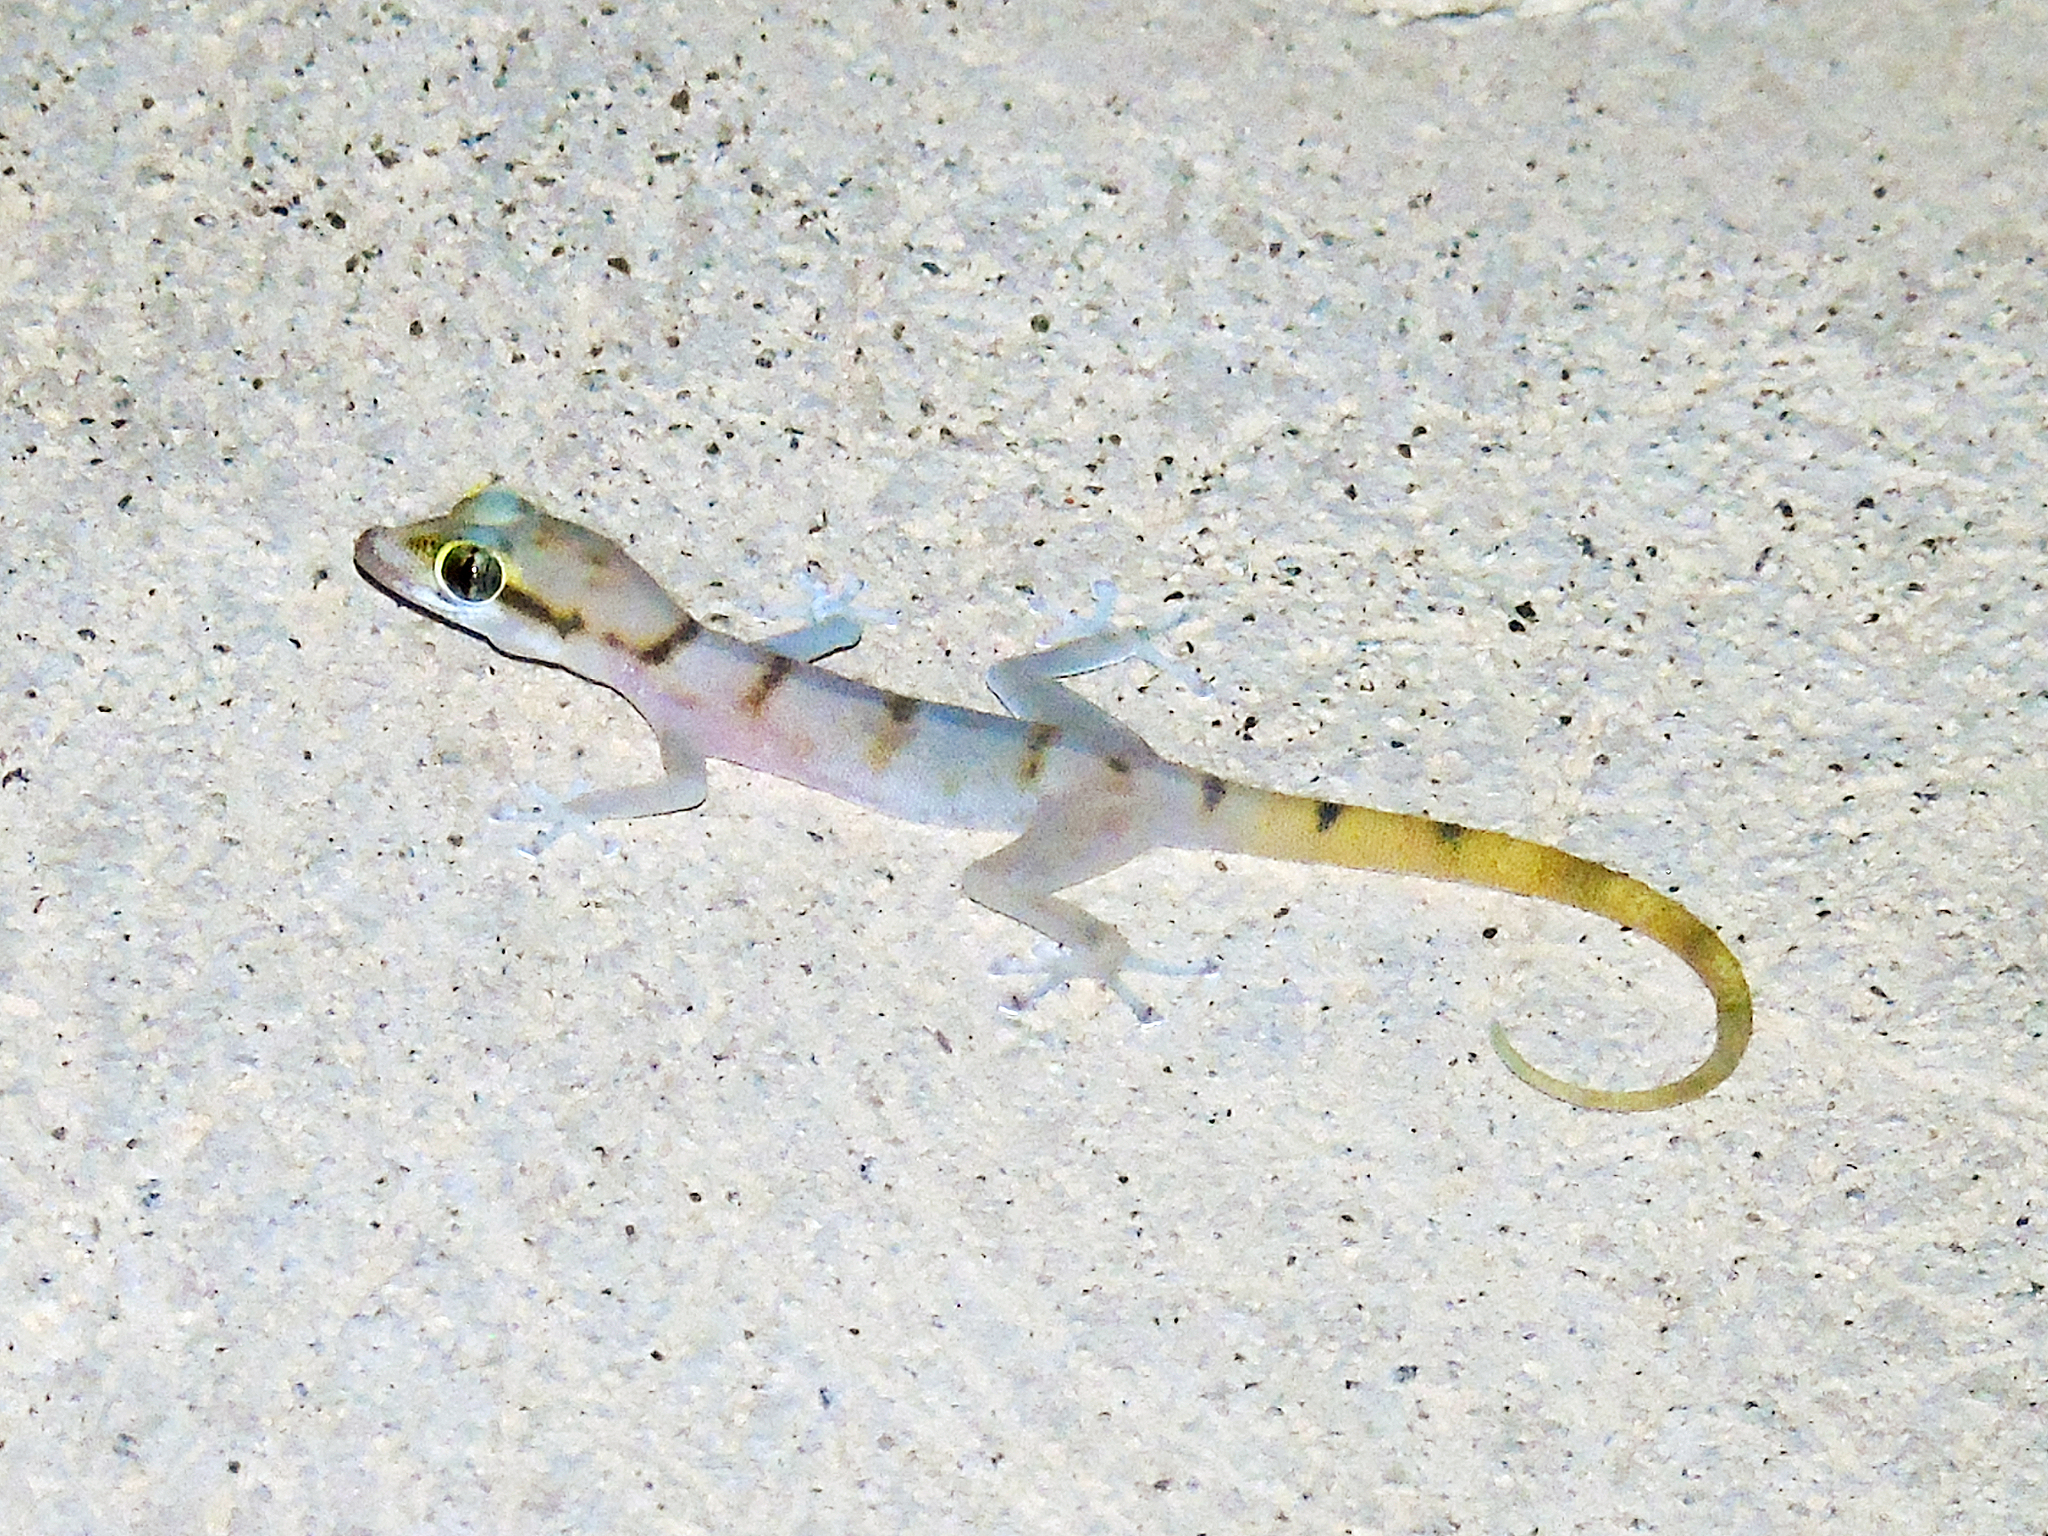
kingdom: Animalia
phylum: Chordata
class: Squamata
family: Phyllodactylidae
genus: Asaccus
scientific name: Asaccus gallagheri
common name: Gallagher's gecko
